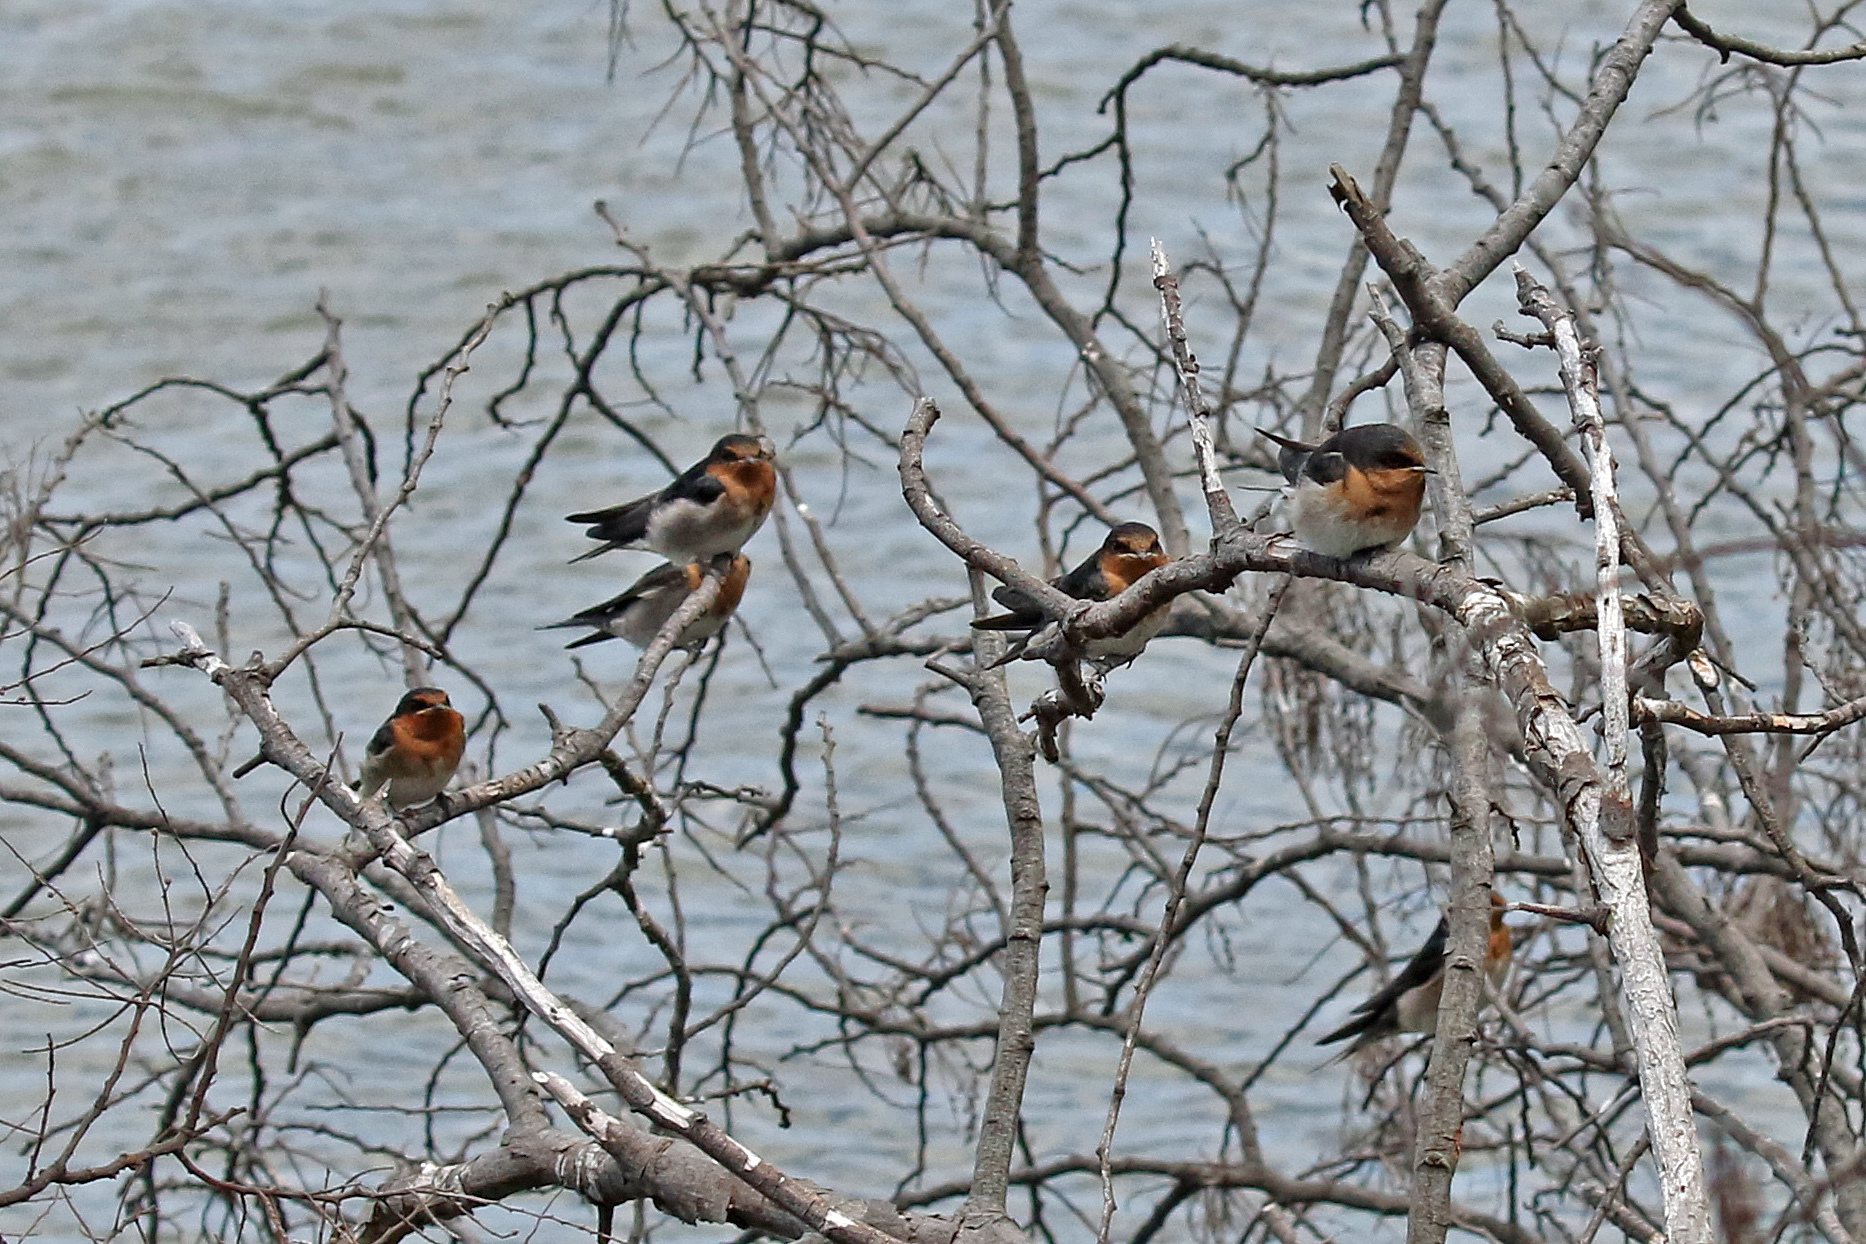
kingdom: Animalia
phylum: Chordata
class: Aves
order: Passeriformes
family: Hirundinidae
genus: Hirundo
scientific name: Hirundo neoxena
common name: Welcome swallow
